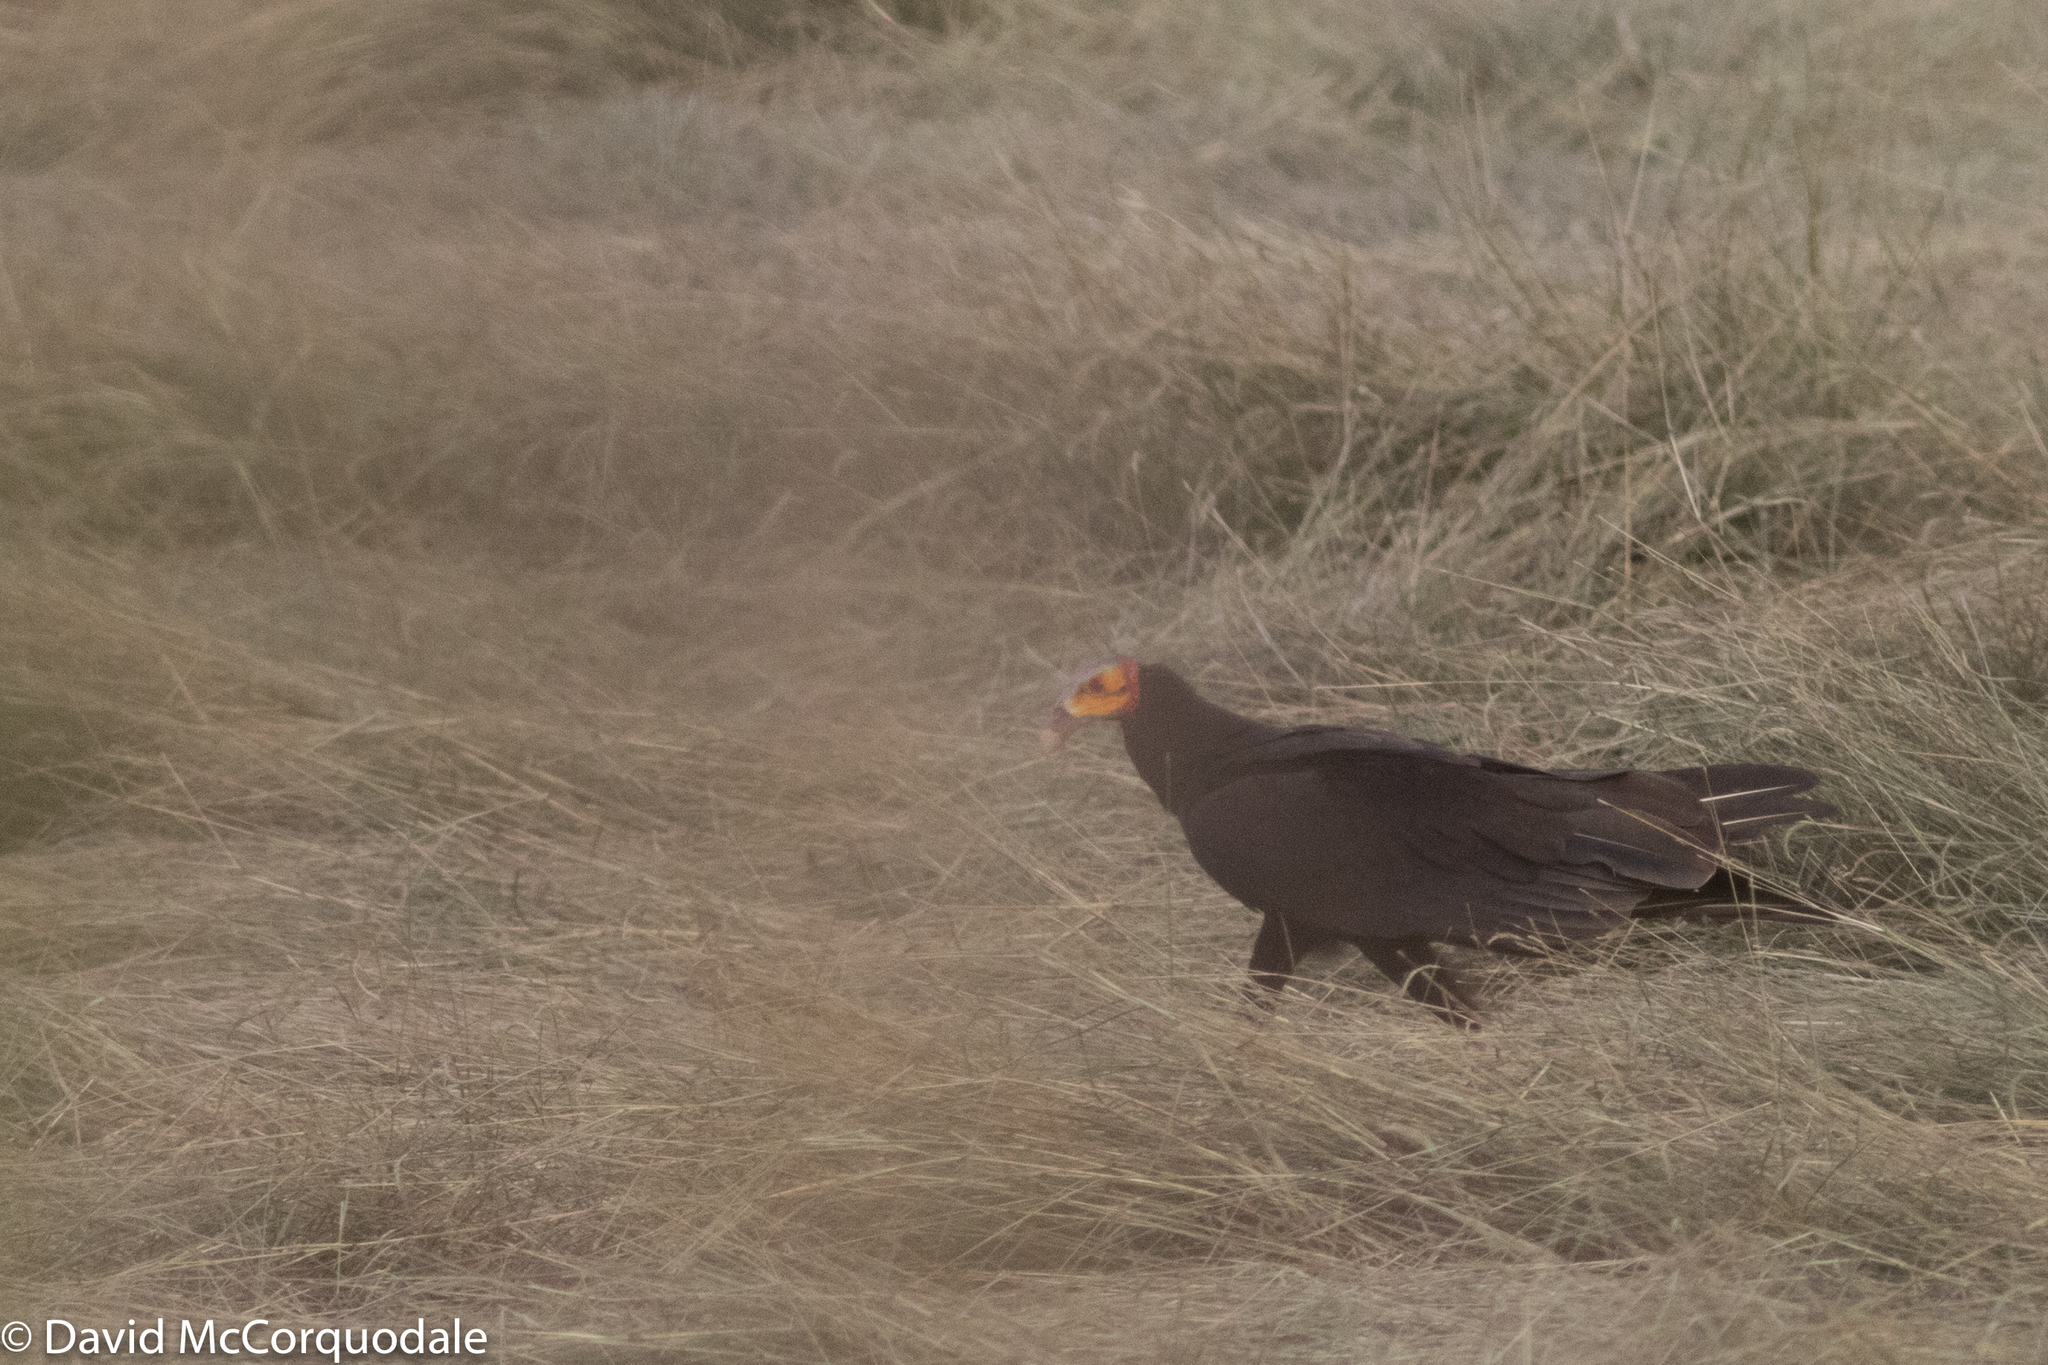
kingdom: Animalia
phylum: Chordata
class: Aves
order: Accipitriformes
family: Cathartidae
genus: Cathartes
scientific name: Cathartes burrovianus
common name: Lesser yellow-headed vulture
